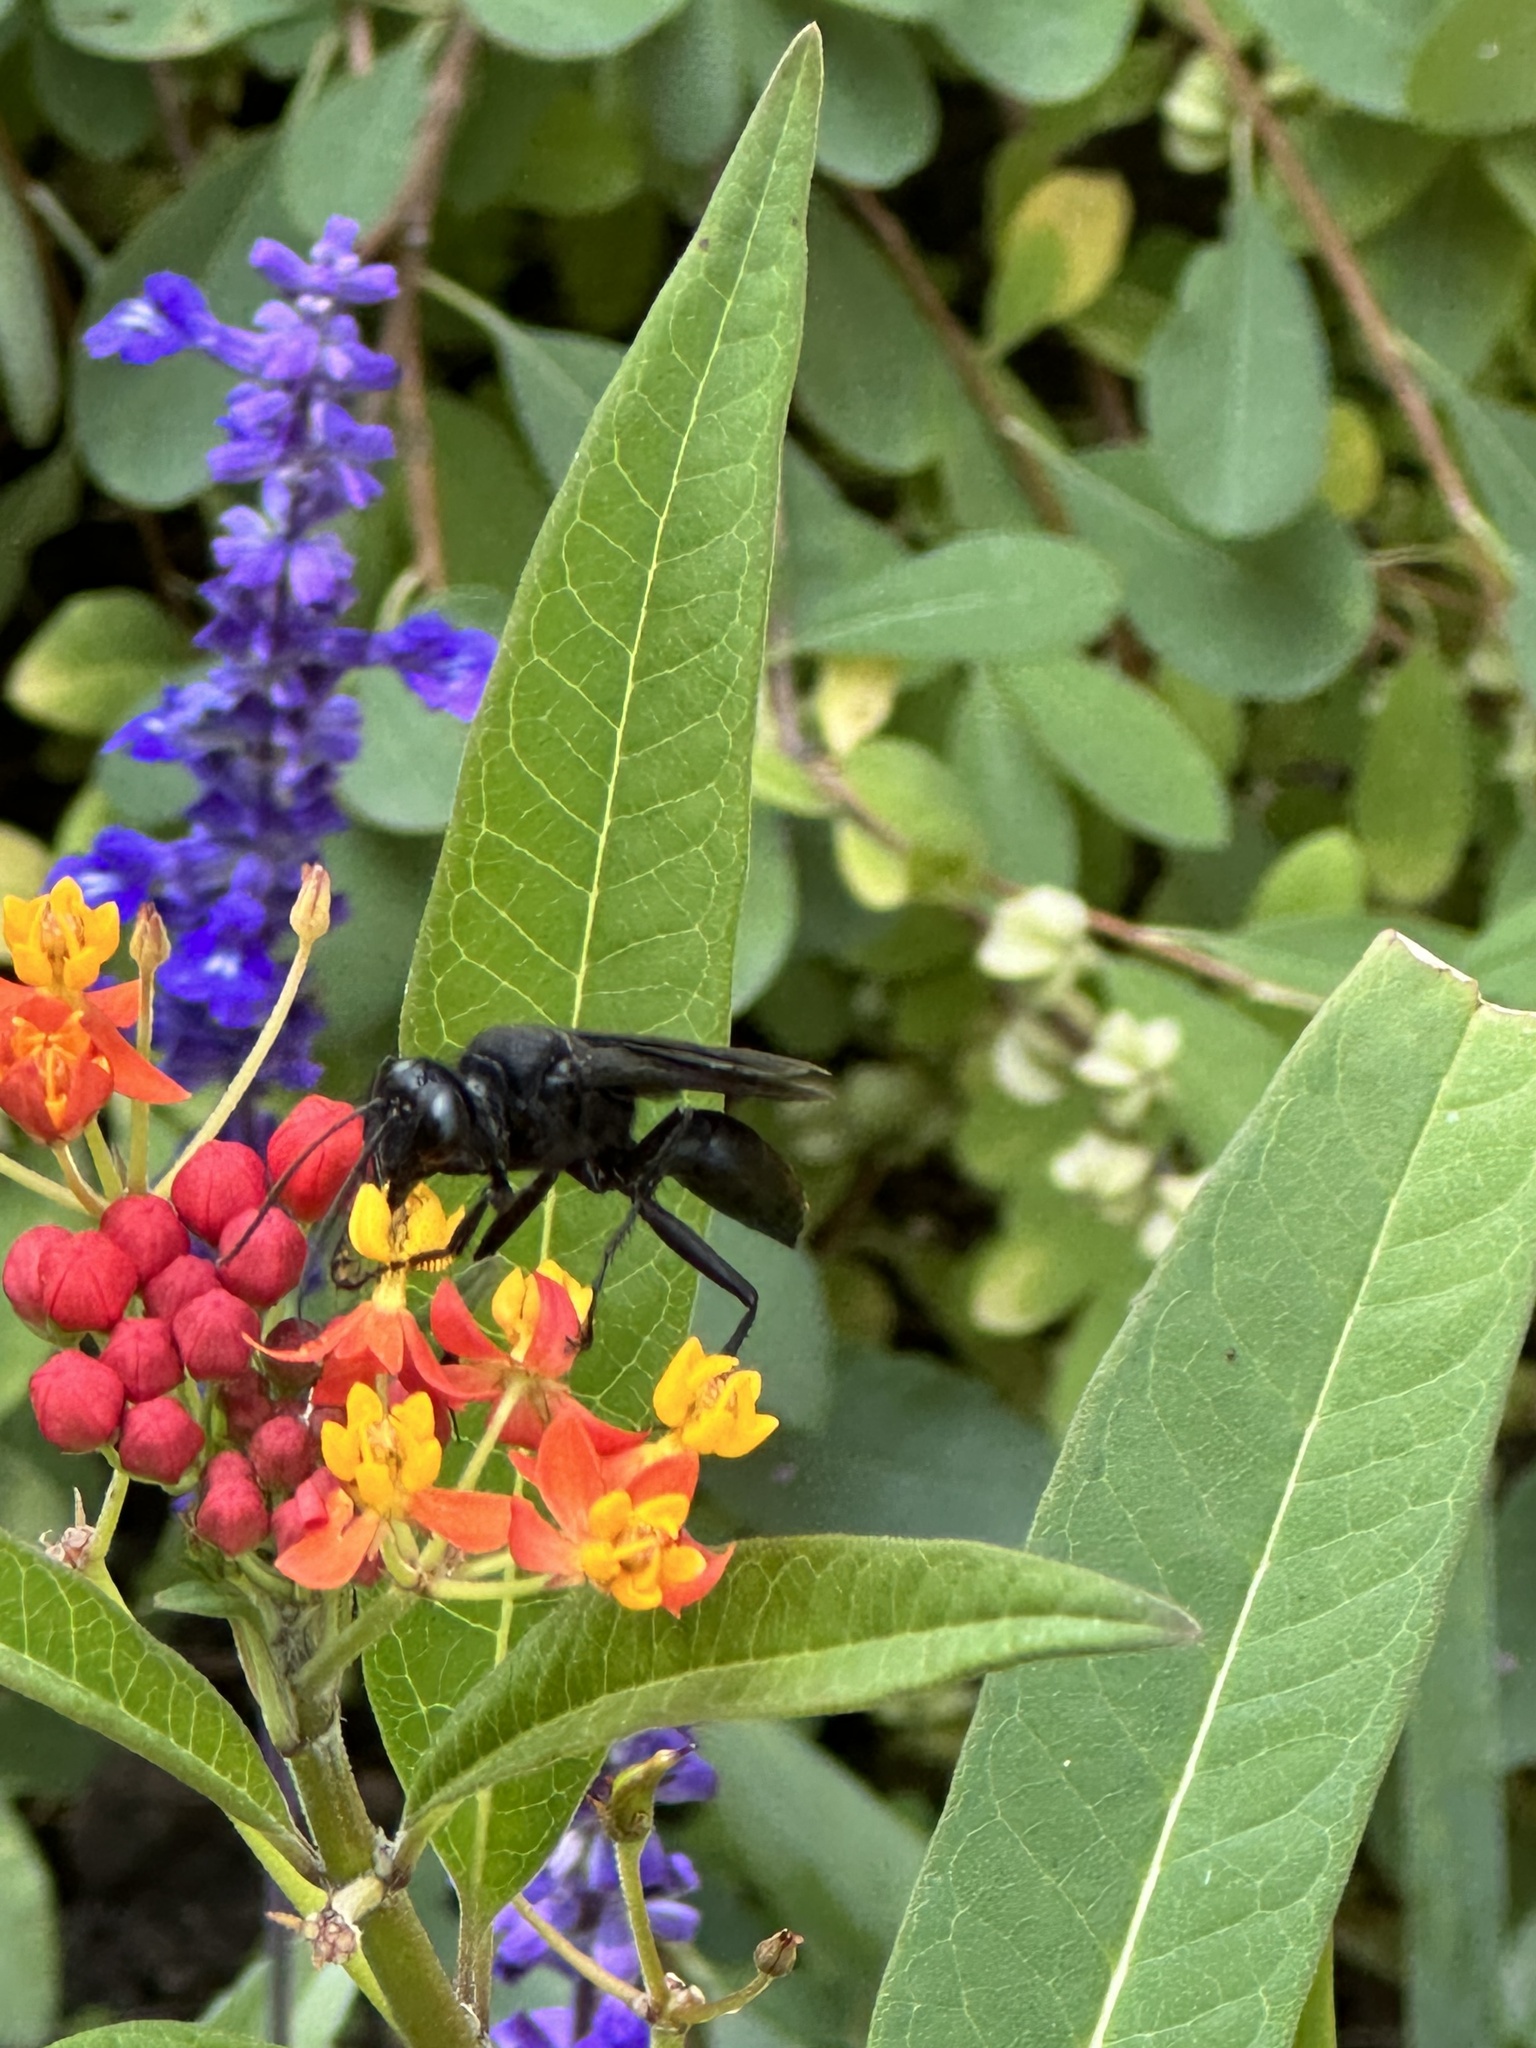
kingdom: Animalia
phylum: Arthropoda
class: Insecta
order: Hymenoptera
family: Sphecidae
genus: Sphex
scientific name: Sphex pensylvanicus
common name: Great black digger wasp
